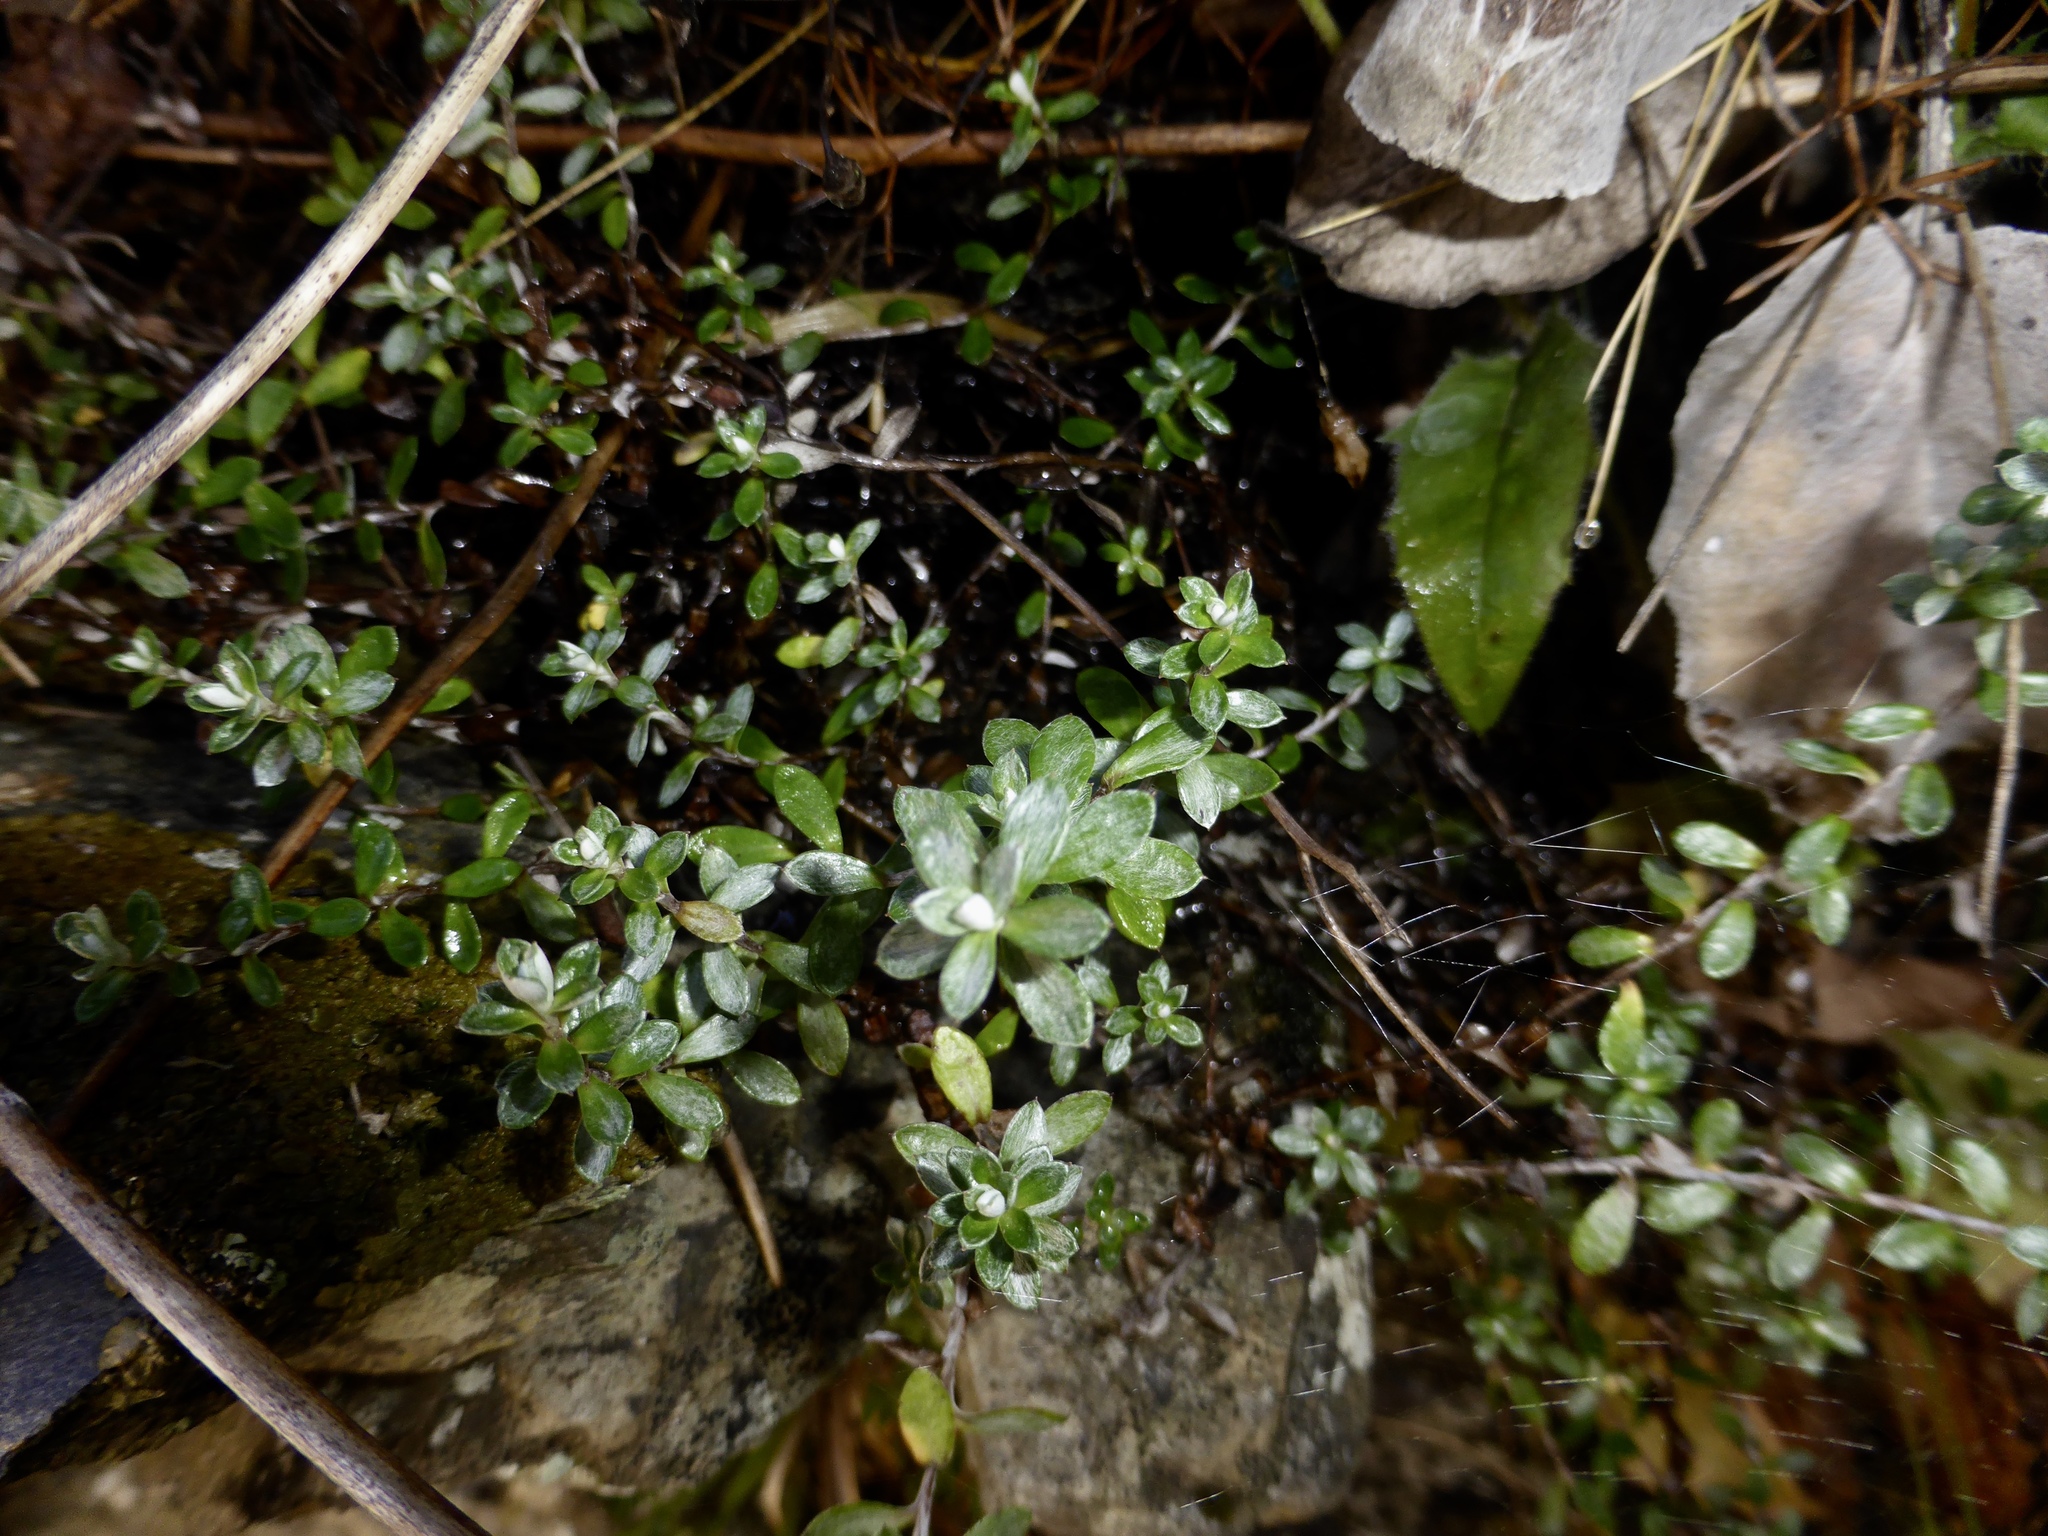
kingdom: Plantae
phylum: Tracheophyta
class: Magnoliopsida
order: Asterales
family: Asteraceae
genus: Anaphalioides
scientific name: Anaphalioides bellidioides
